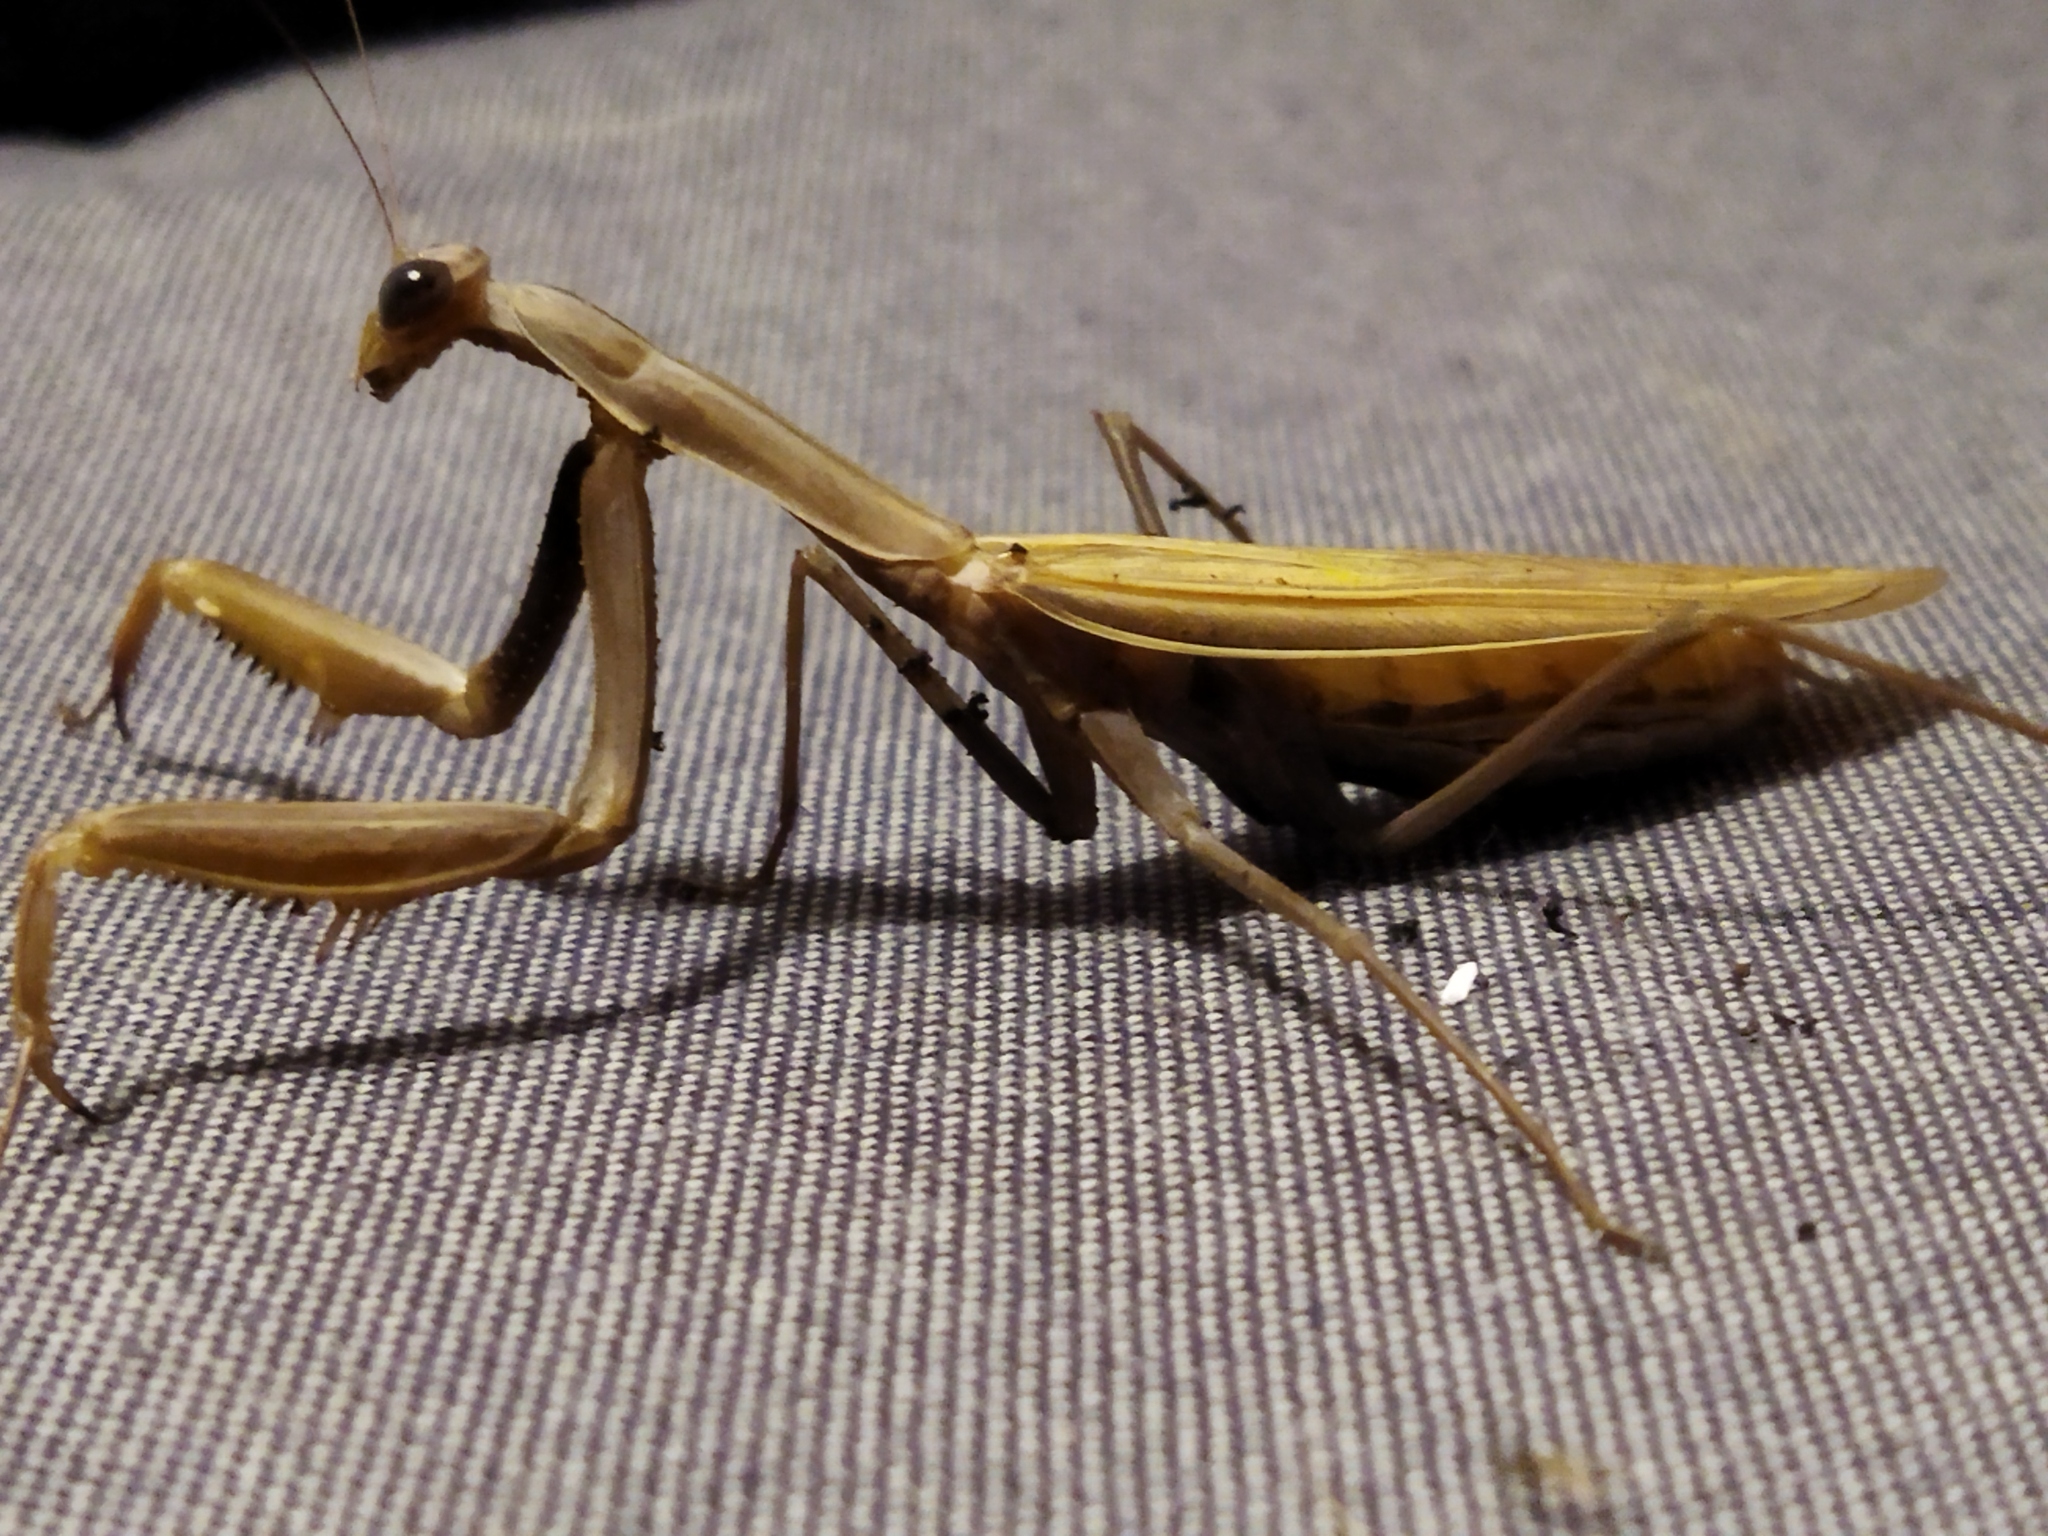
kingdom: Animalia
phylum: Arthropoda
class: Insecta
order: Mantodea
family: Mantidae
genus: Mantis
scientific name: Mantis religiosa
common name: Praying mantis
